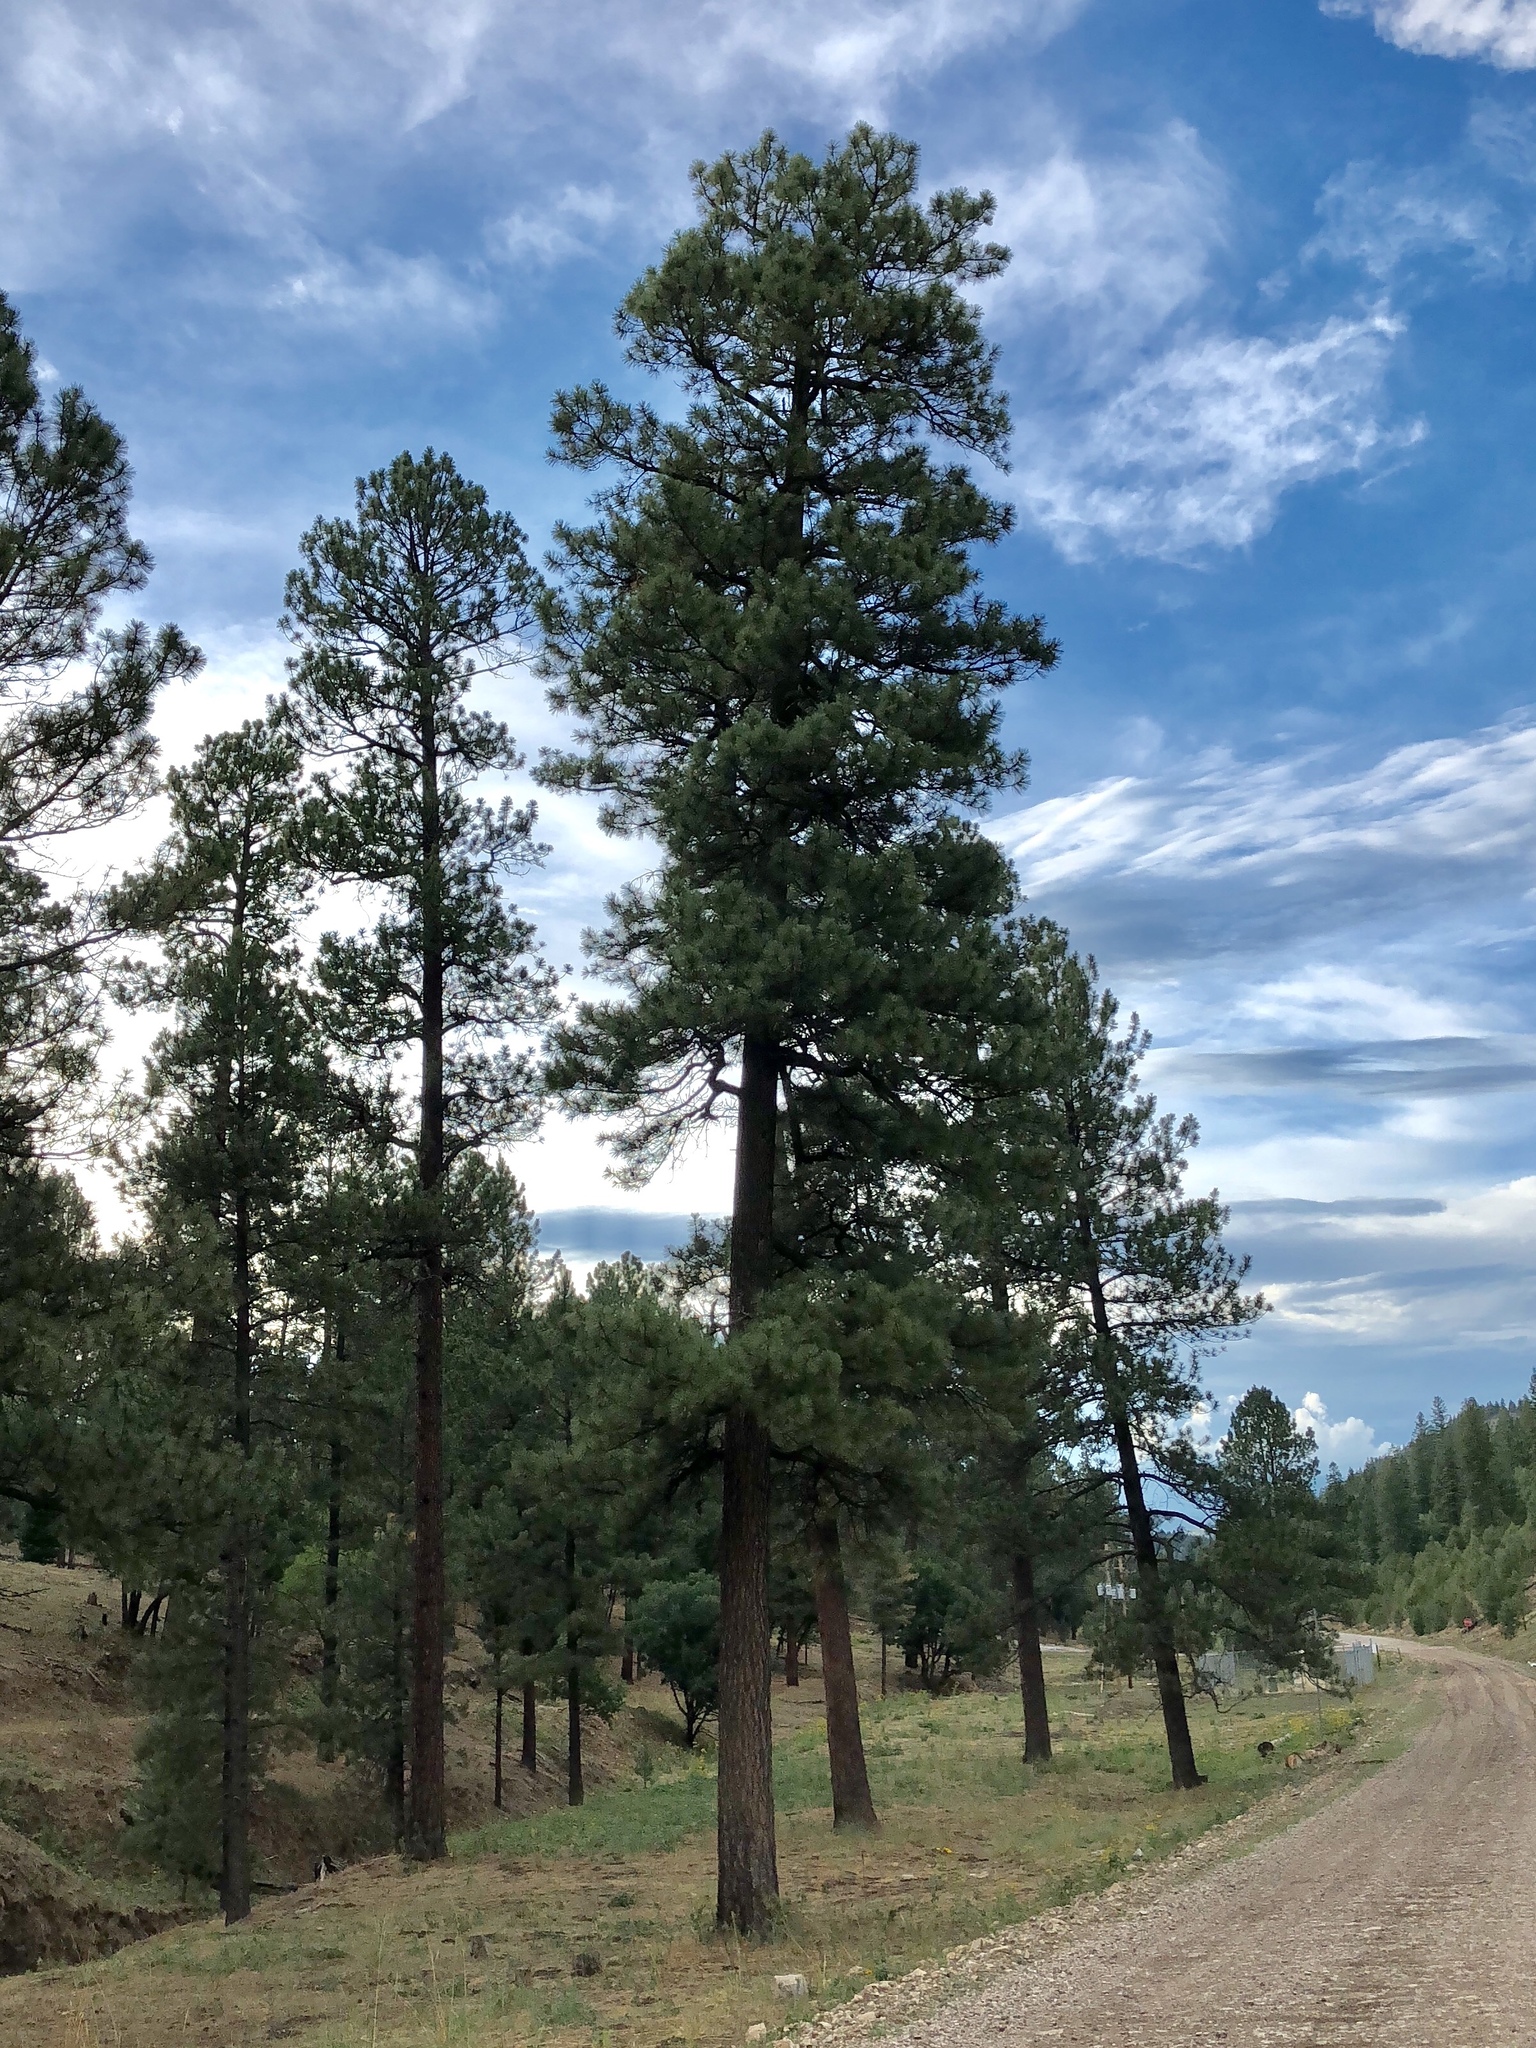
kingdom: Plantae
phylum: Tracheophyta
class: Pinopsida
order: Pinales
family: Pinaceae
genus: Pinus
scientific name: Pinus ponderosa
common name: Western yellow-pine
